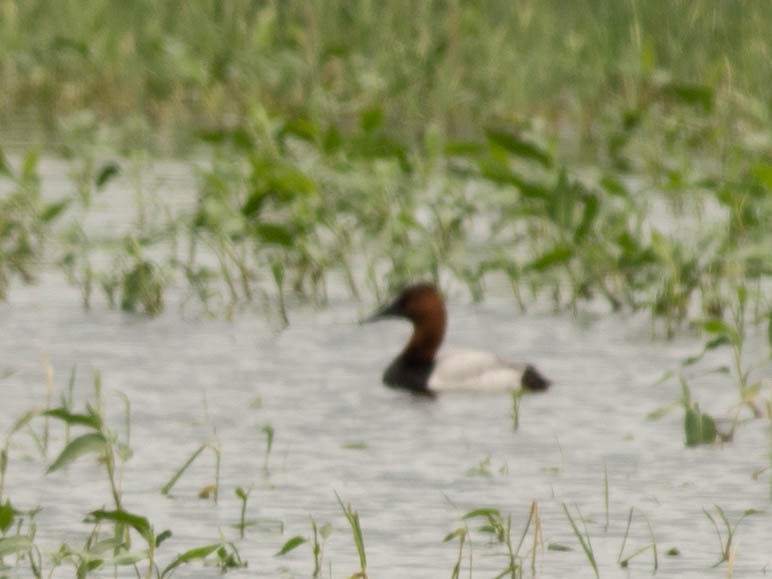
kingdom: Animalia
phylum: Chordata
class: Aves
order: Anseriformes
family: Anatidae
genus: Aythya
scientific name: Aythya valisineria
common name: Canvasback
